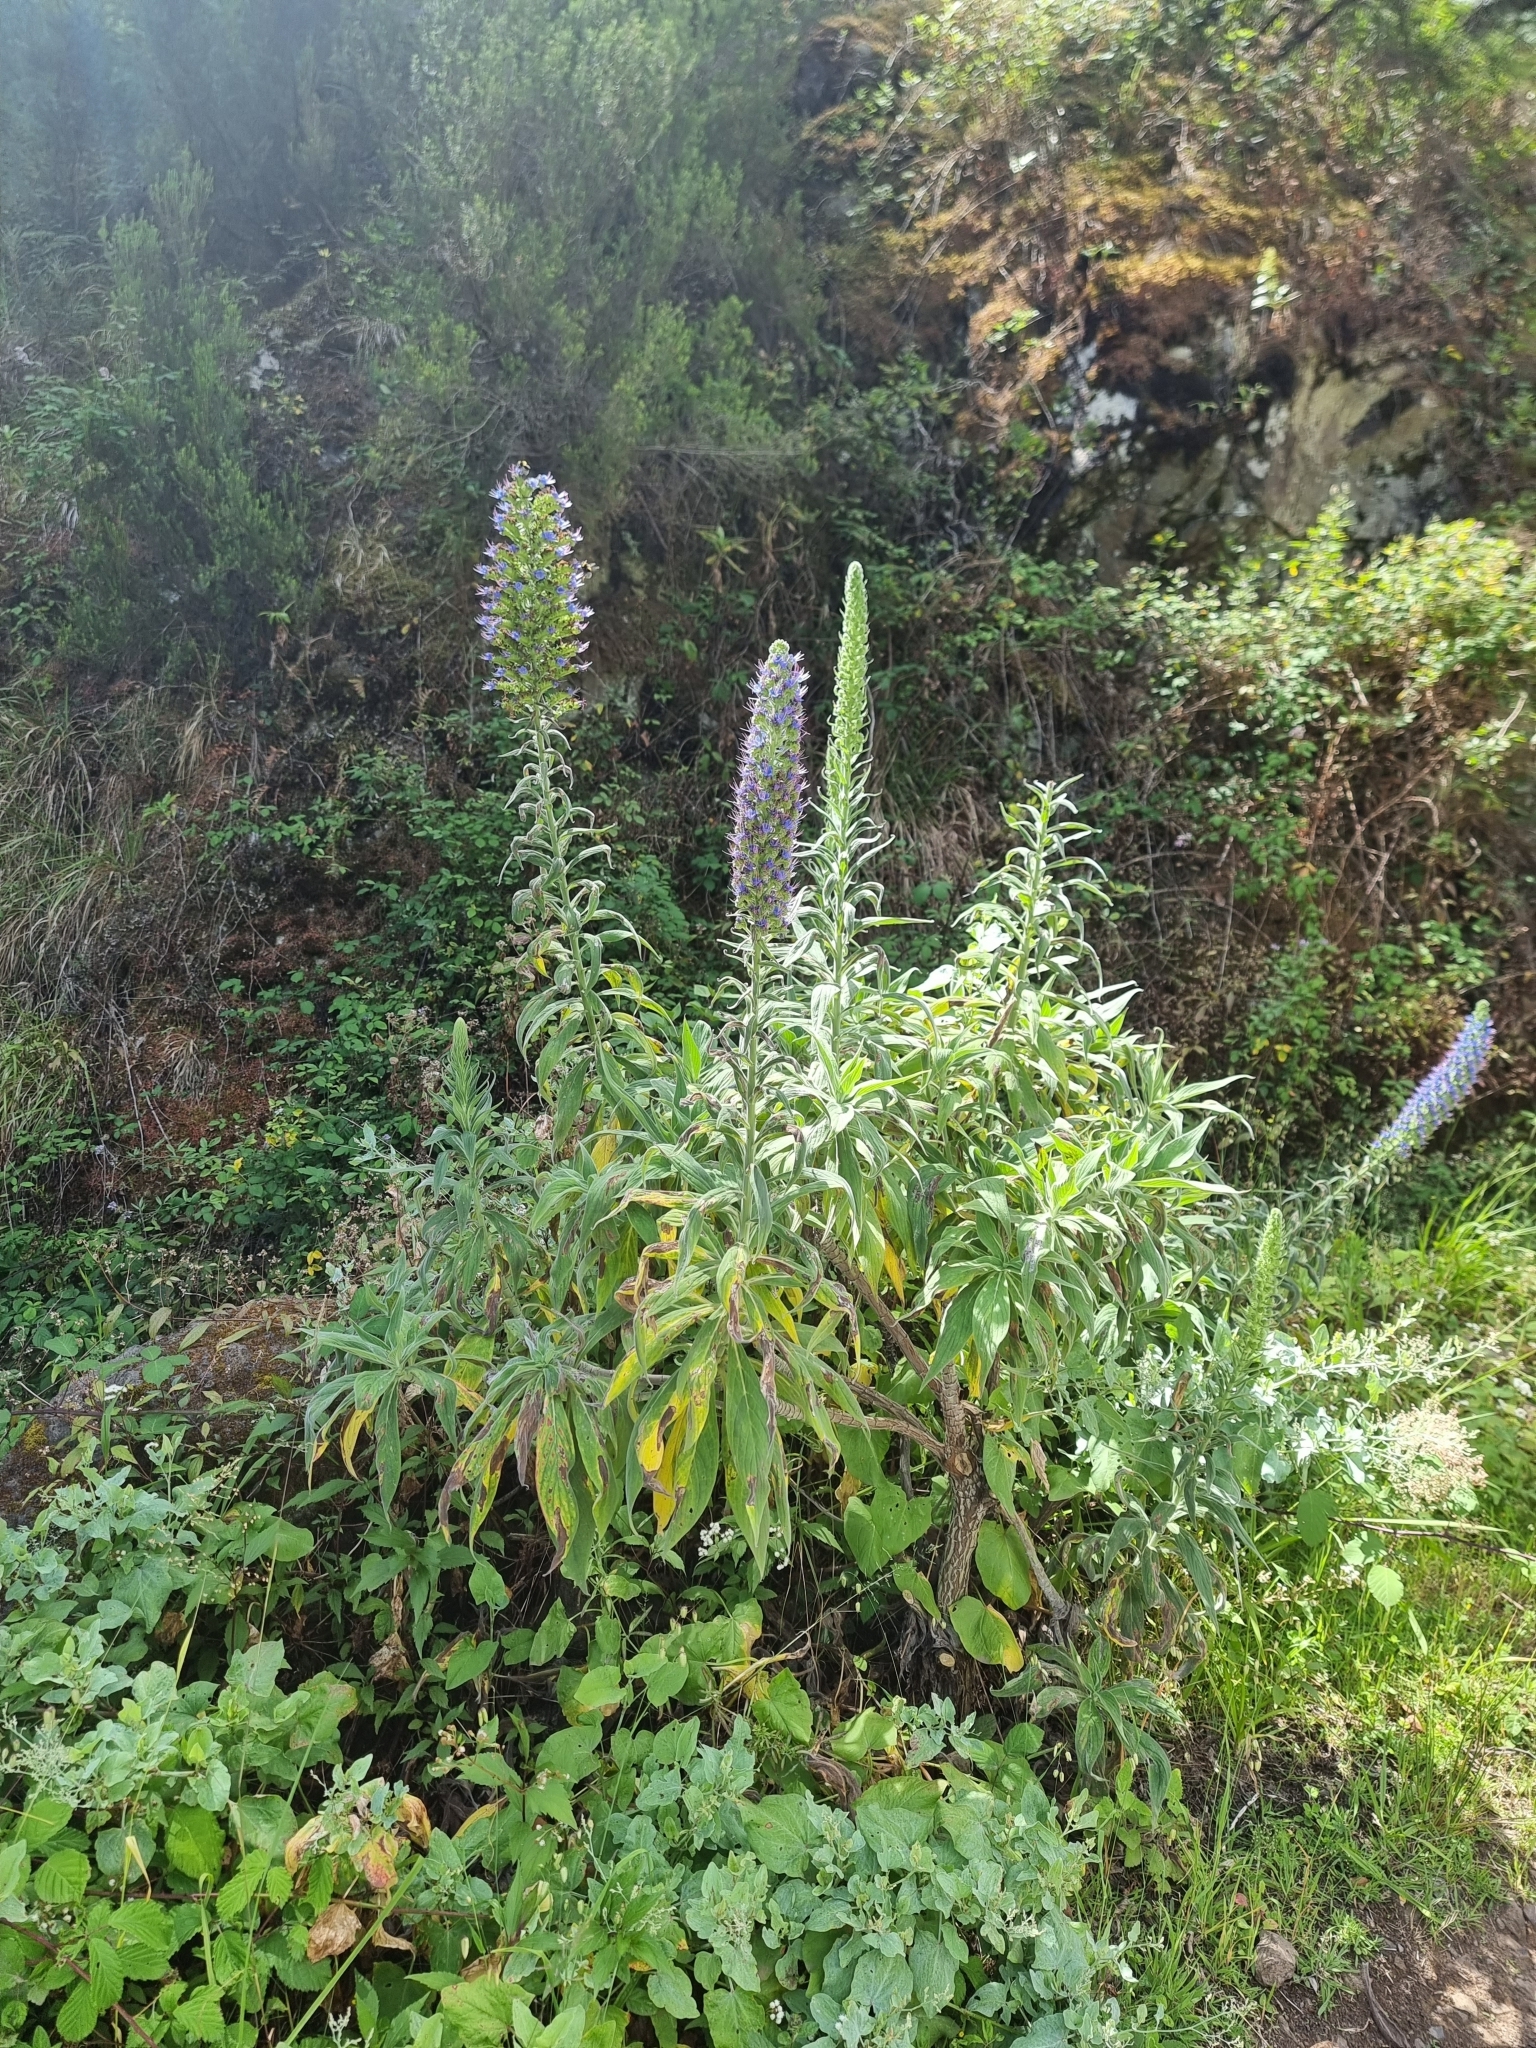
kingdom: Plantae
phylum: Tracheophyta
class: Magnoliopsida
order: Boraginales
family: Boraginaceae
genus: Echium
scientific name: Echium candicans
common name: Pride of madeira
